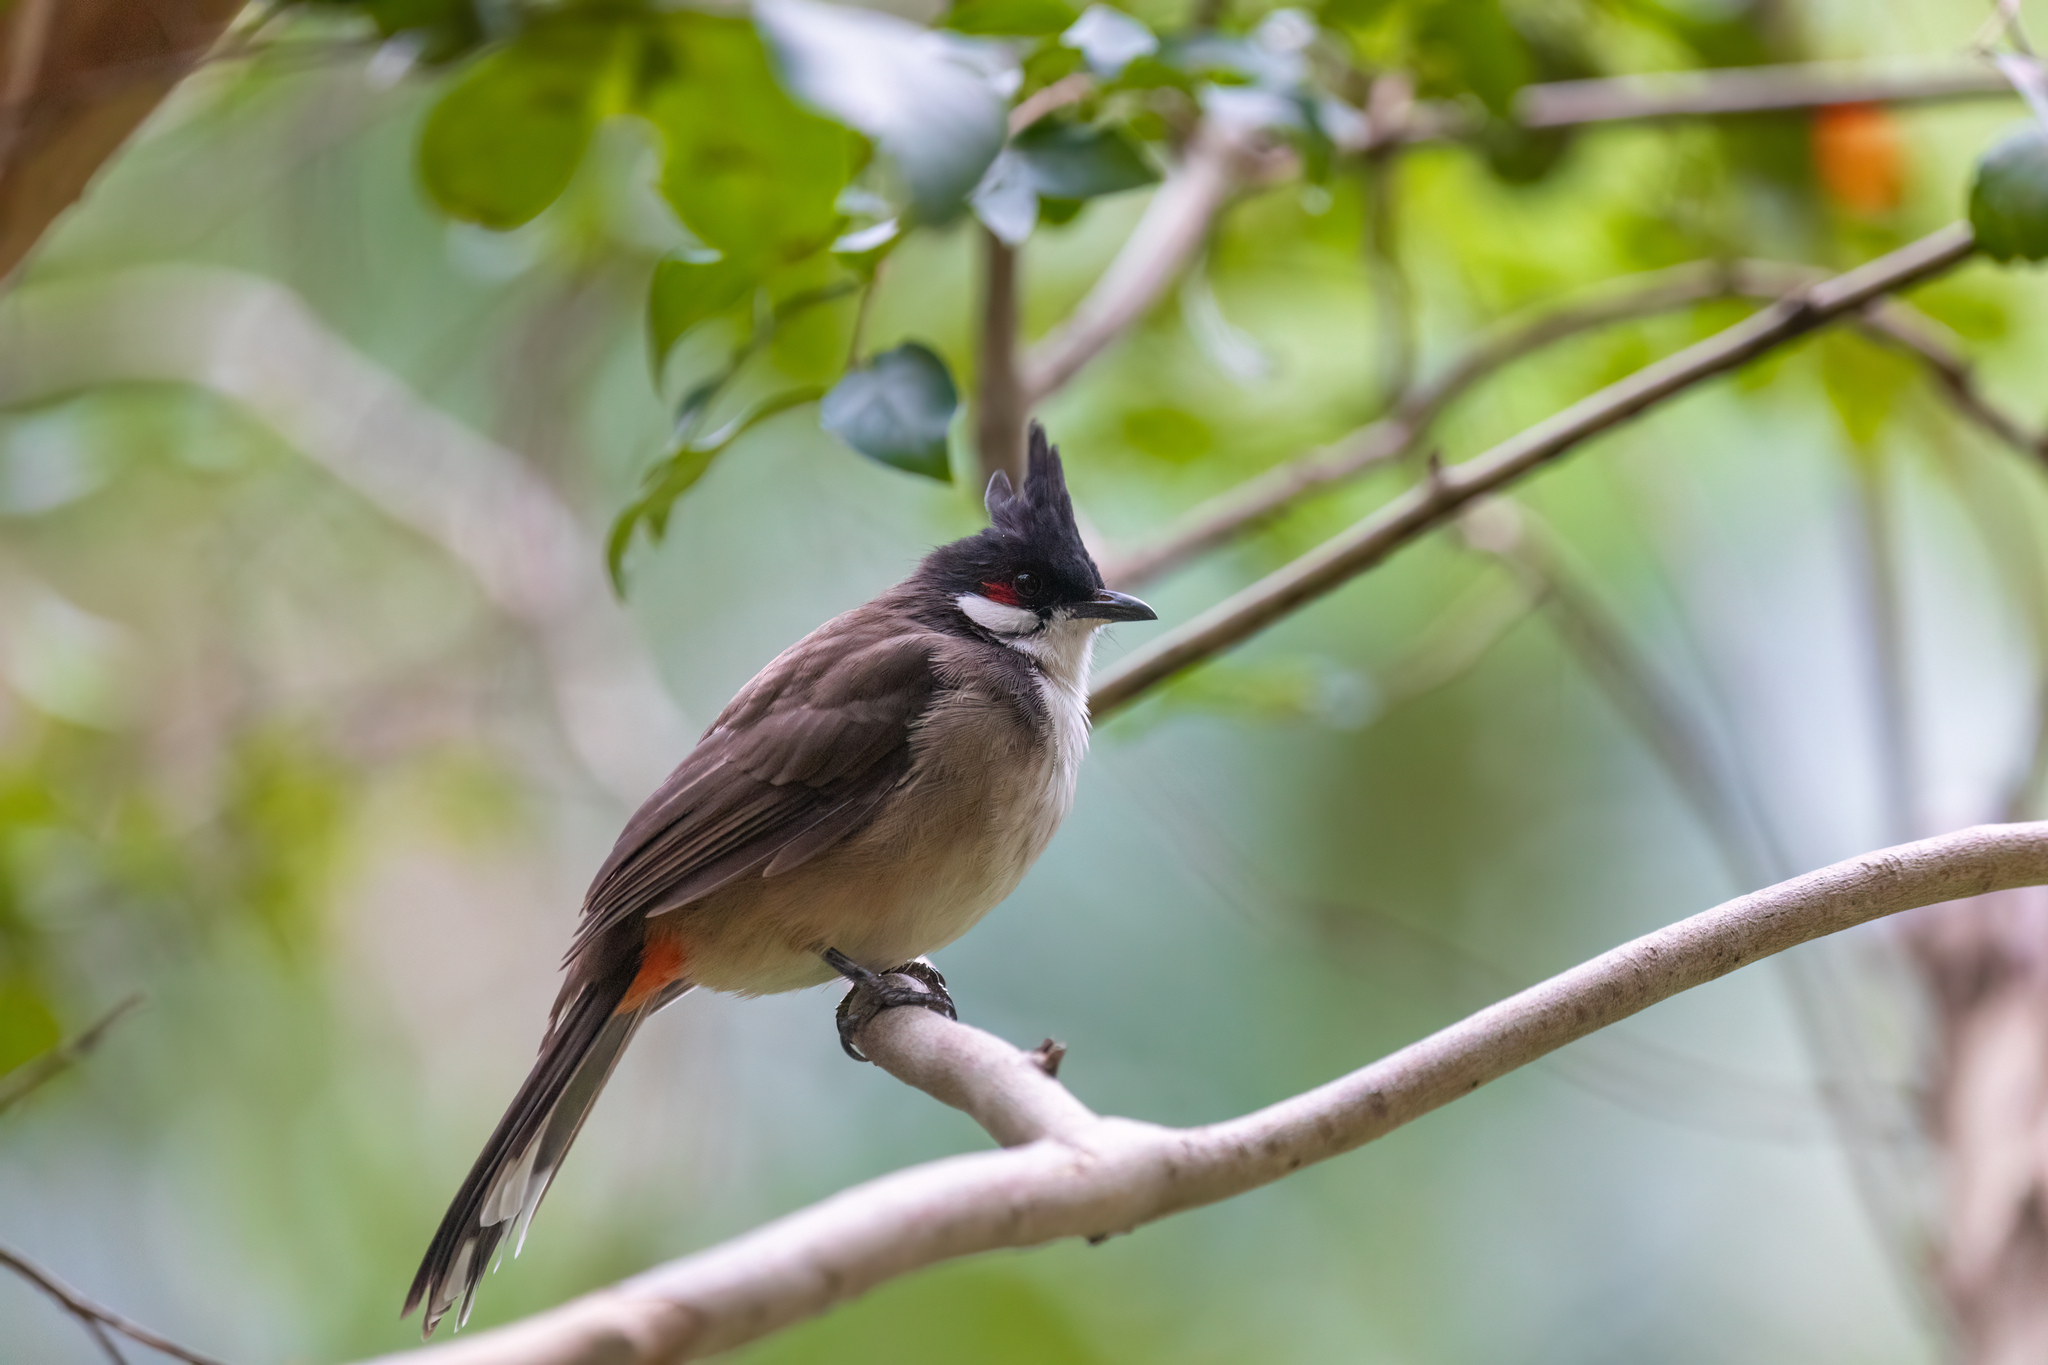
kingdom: Animalia
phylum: Chordata
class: Aves
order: Passeriformes
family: Pycnonotidae
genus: Pycnonotus
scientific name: Pycnonotus jocosus
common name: Red-whiskered bulbul
